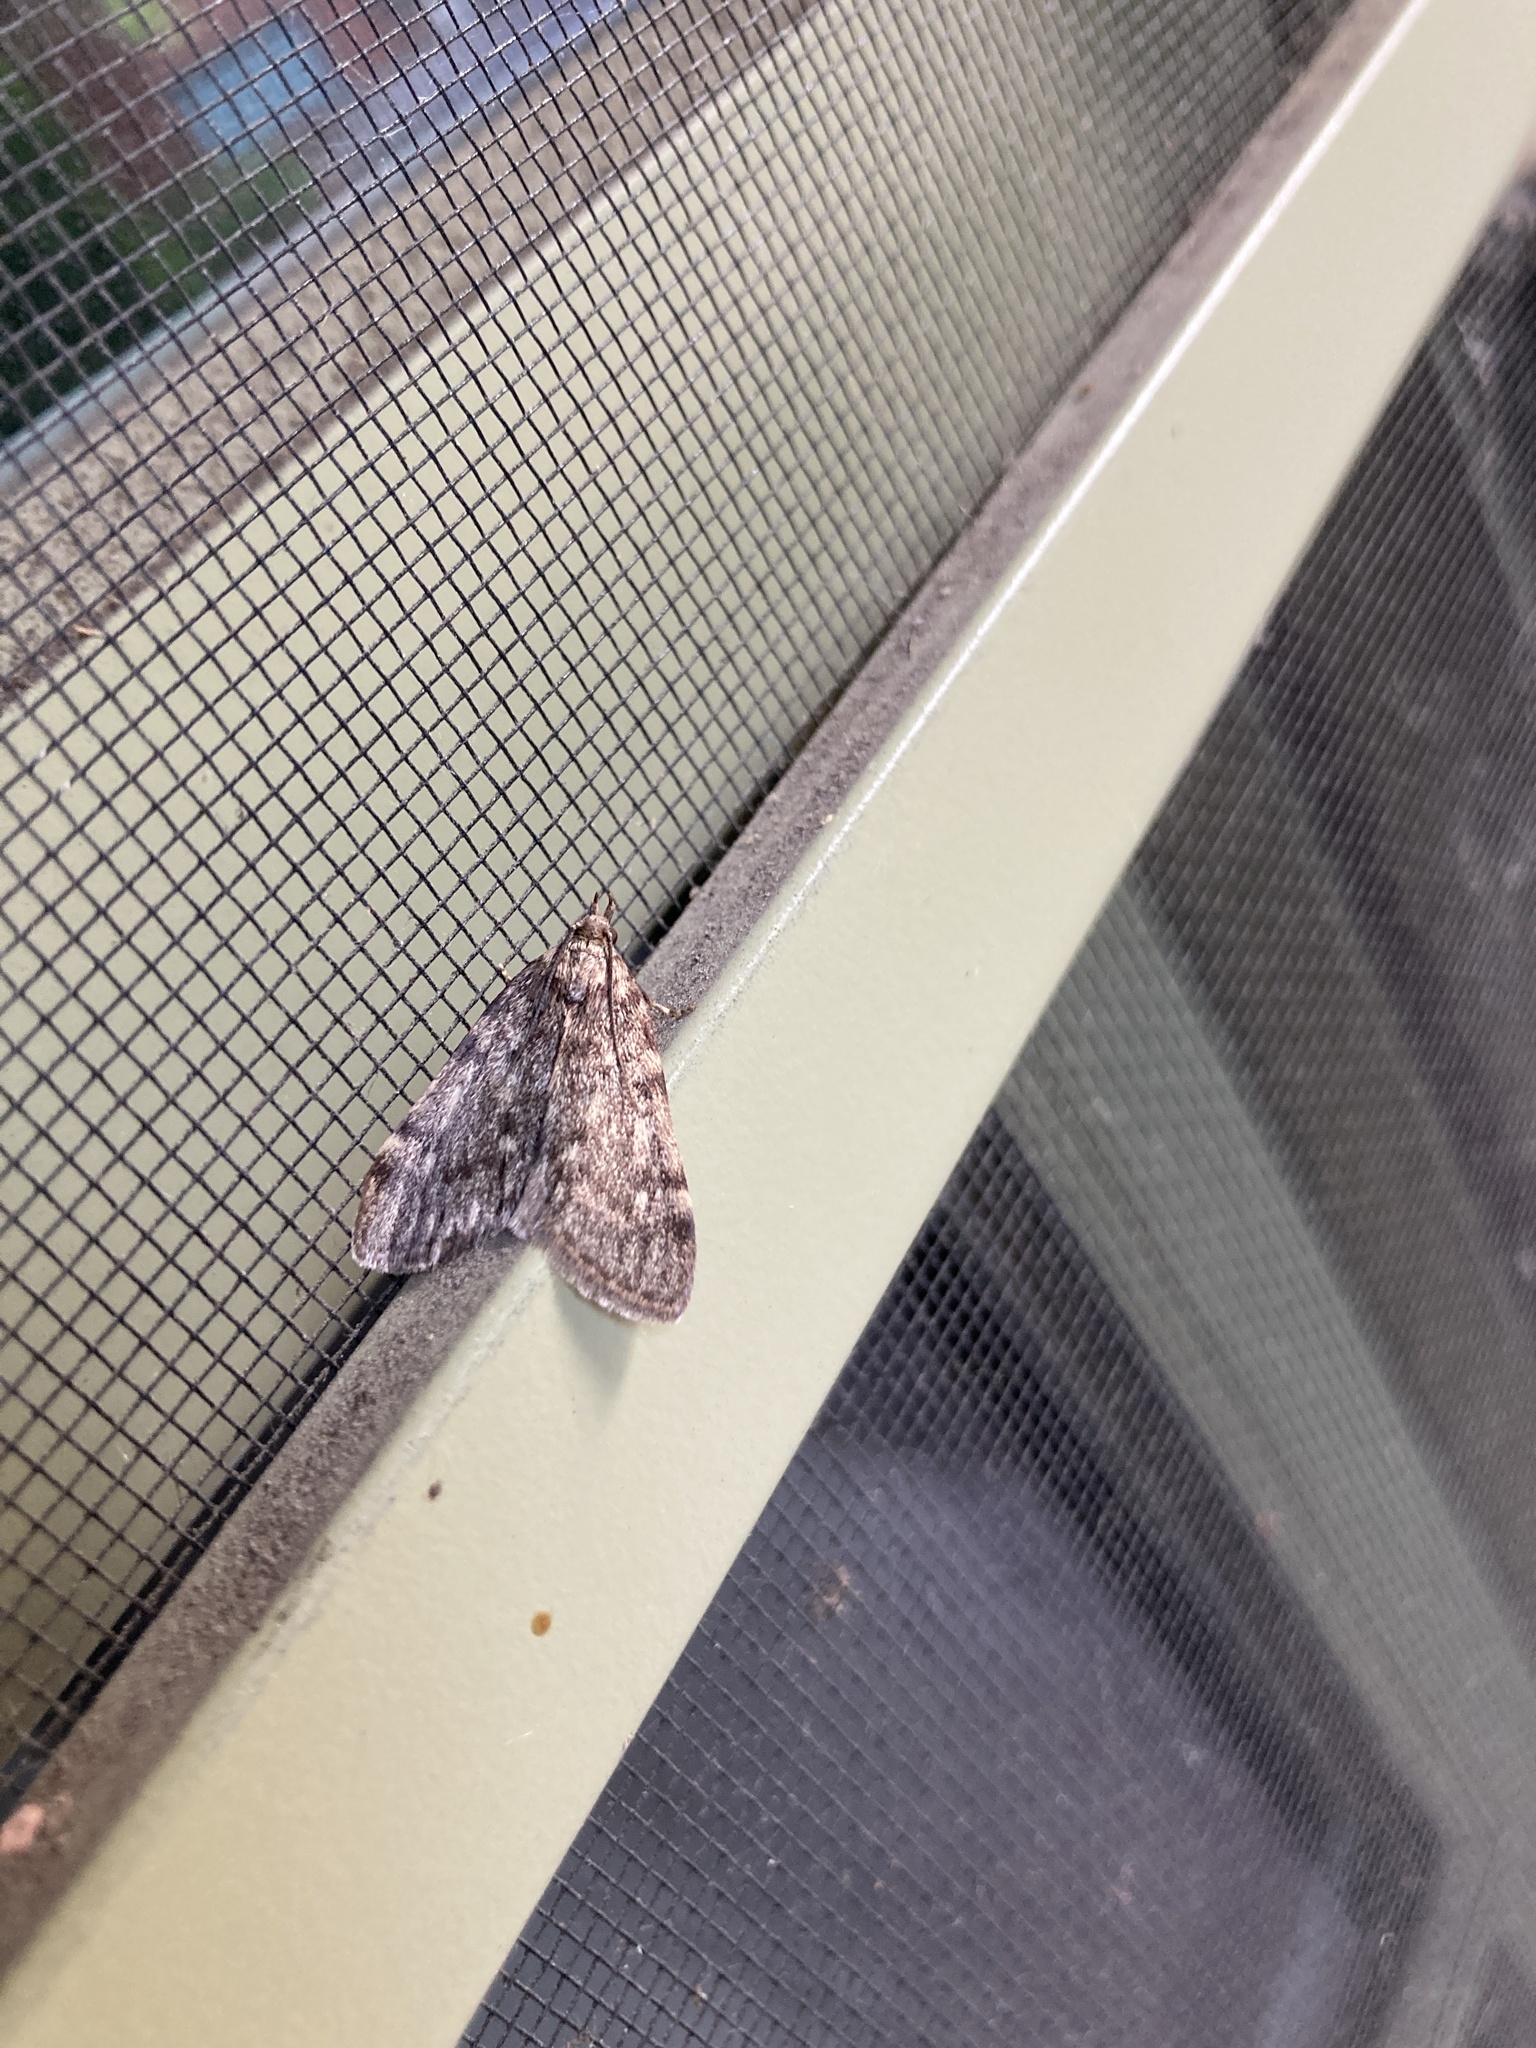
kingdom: Animalia
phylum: Arthropoda
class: Insecta
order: Lepidoptera
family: Pyralidae
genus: Aglossa
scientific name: Aglossa pinguinalis
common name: Large tabby
